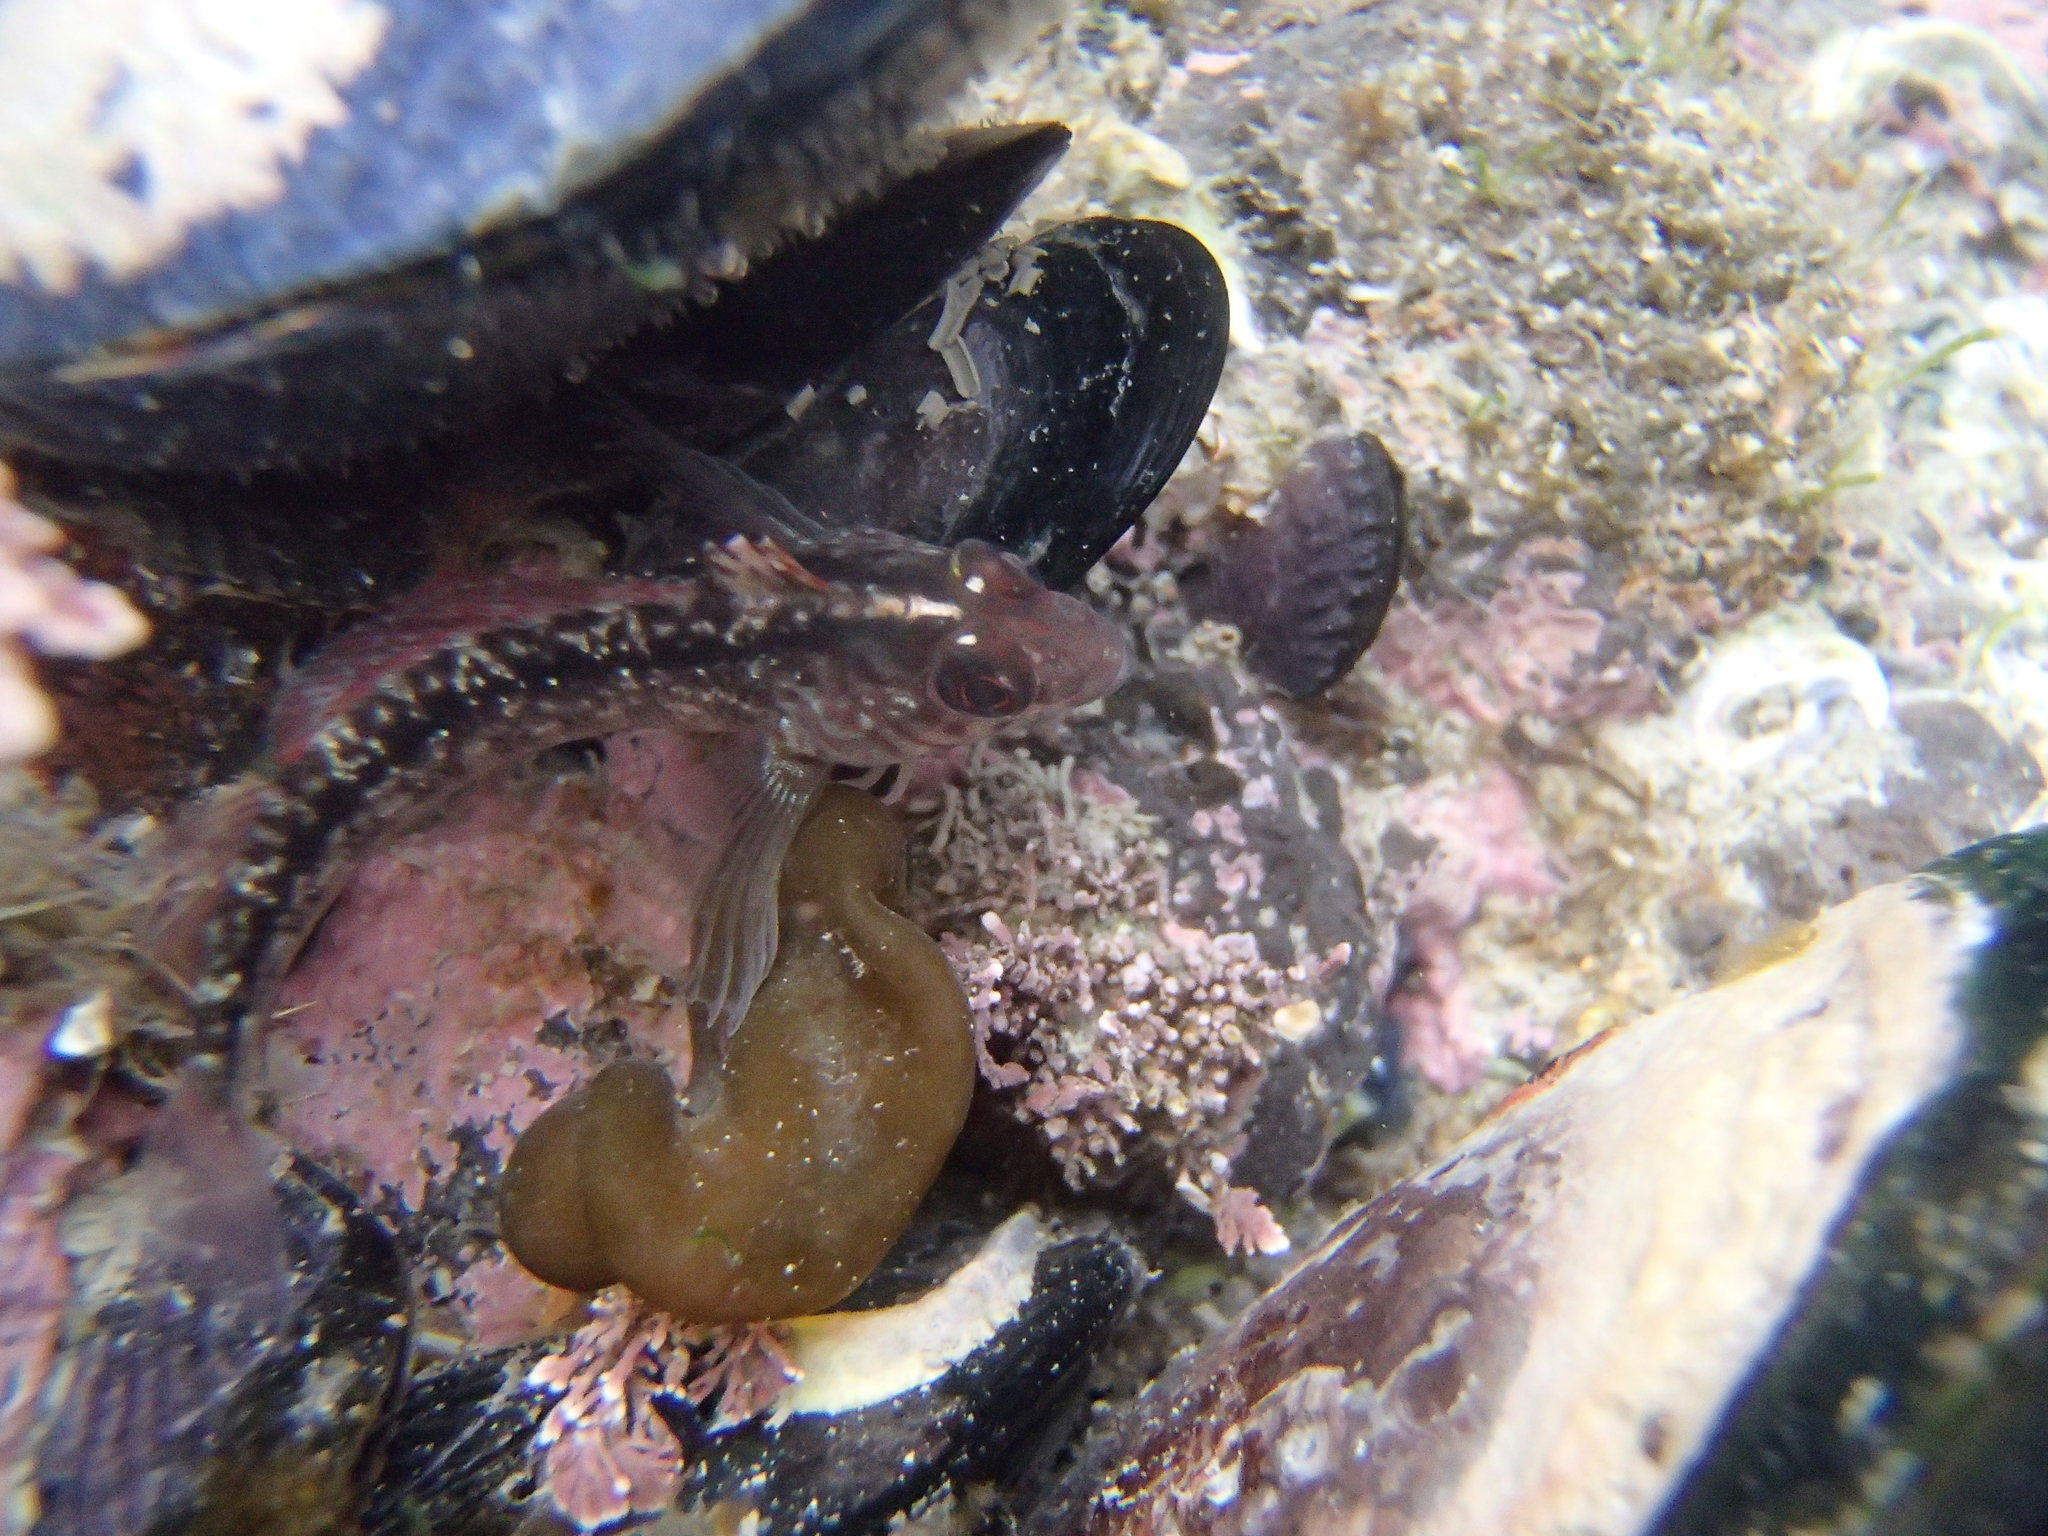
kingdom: Animalia
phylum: Chordata
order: Perciformes
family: Tripterygiidae
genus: Forsterygion
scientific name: Forsterygion lapillum
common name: Common triplefin
